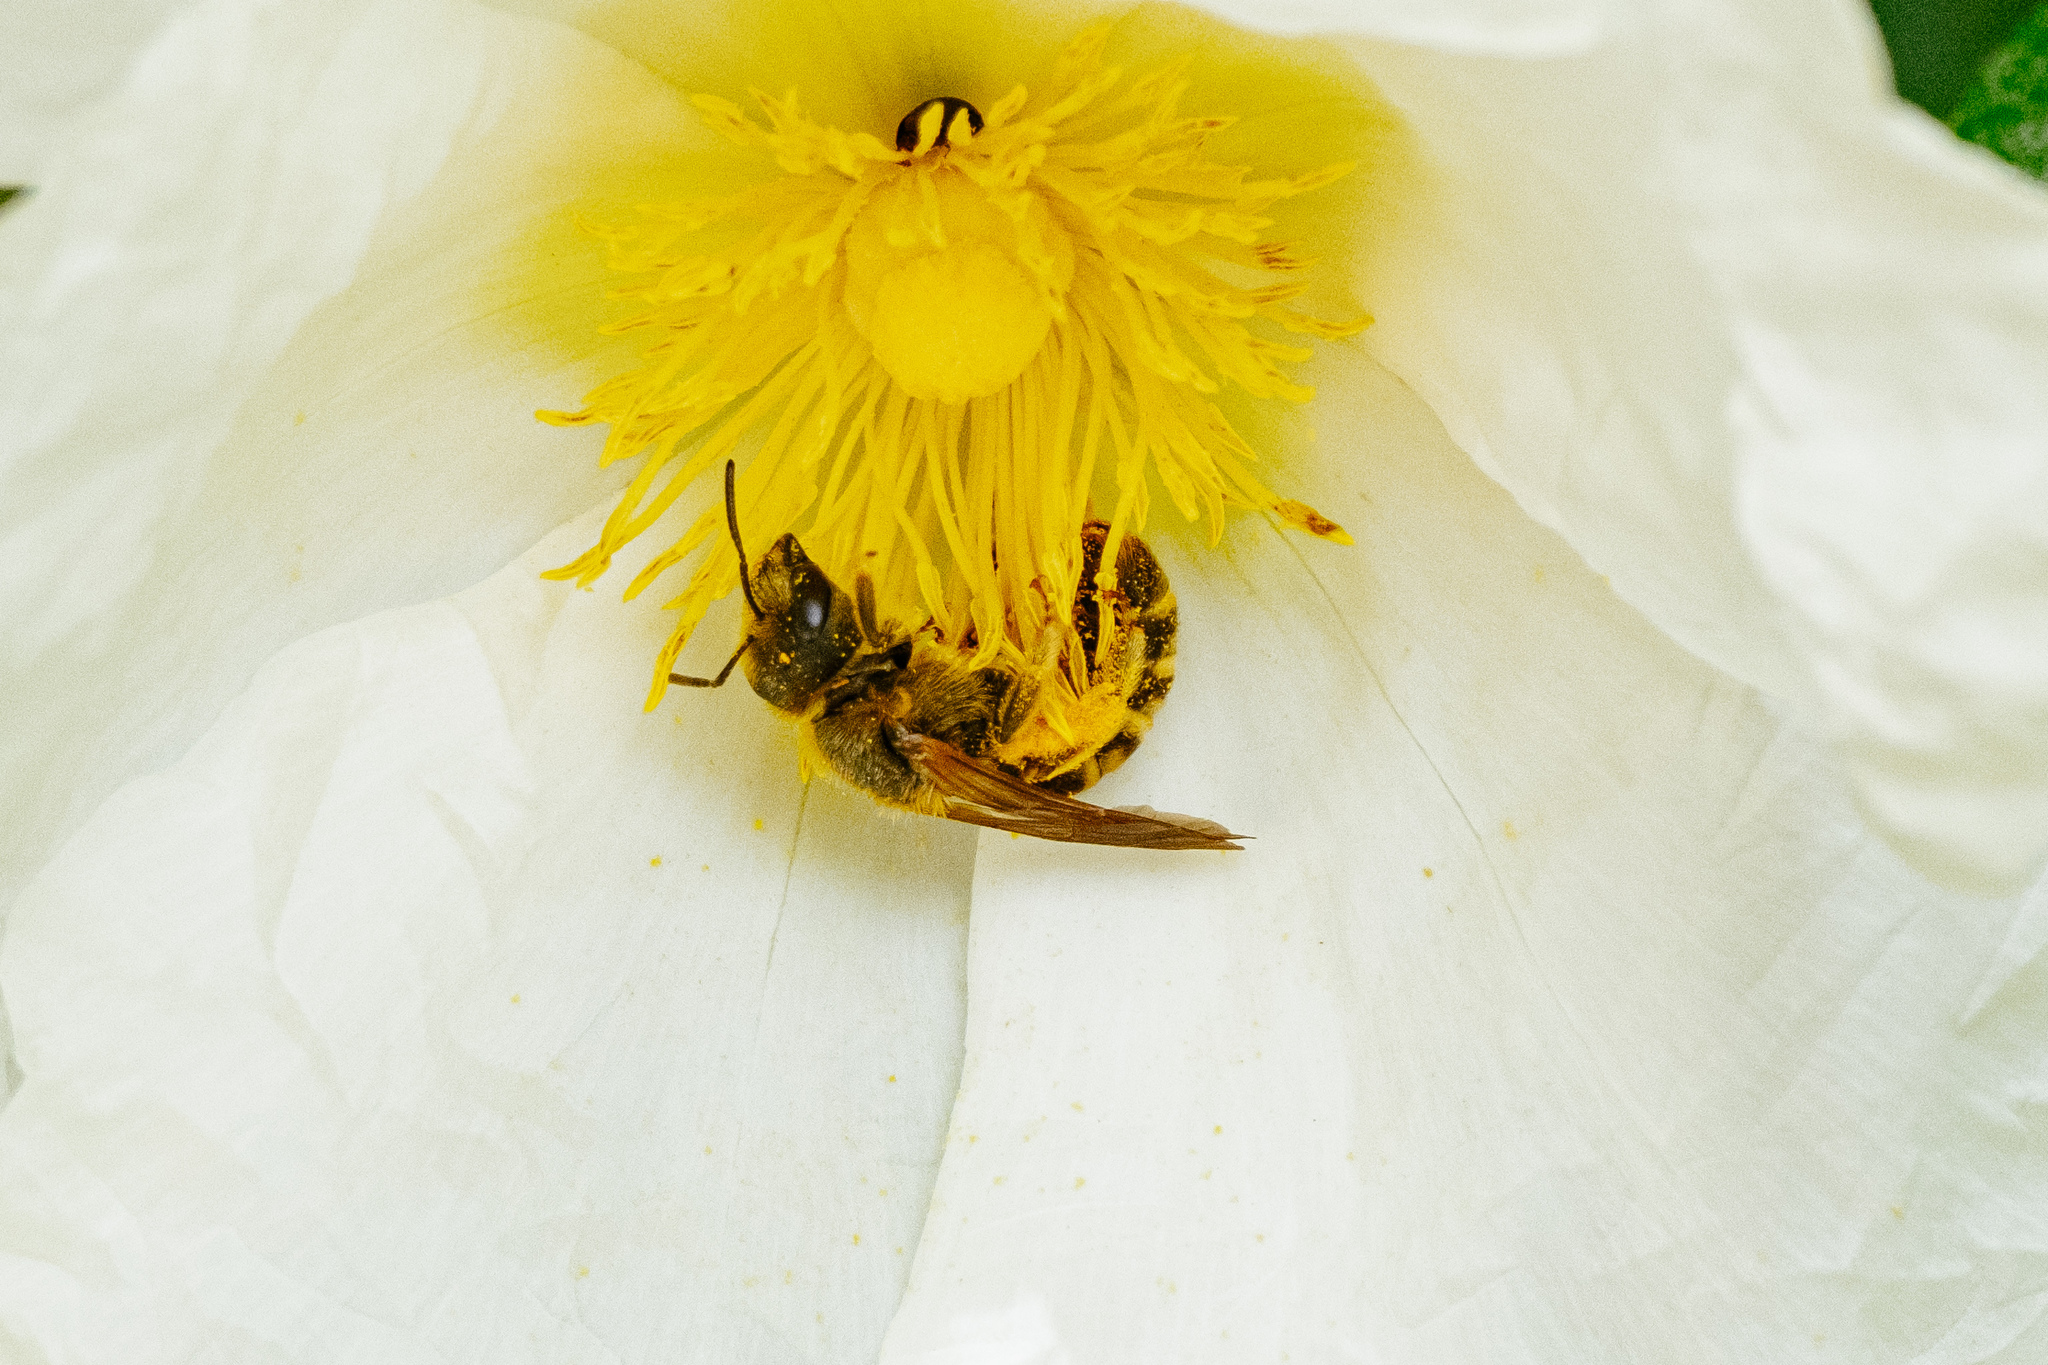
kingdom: Animalia
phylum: Arthropoda
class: Insecta
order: Hymenoptera
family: Halictidae
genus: Halictus
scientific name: Halictus scabiosae
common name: Great banded furrow bee
